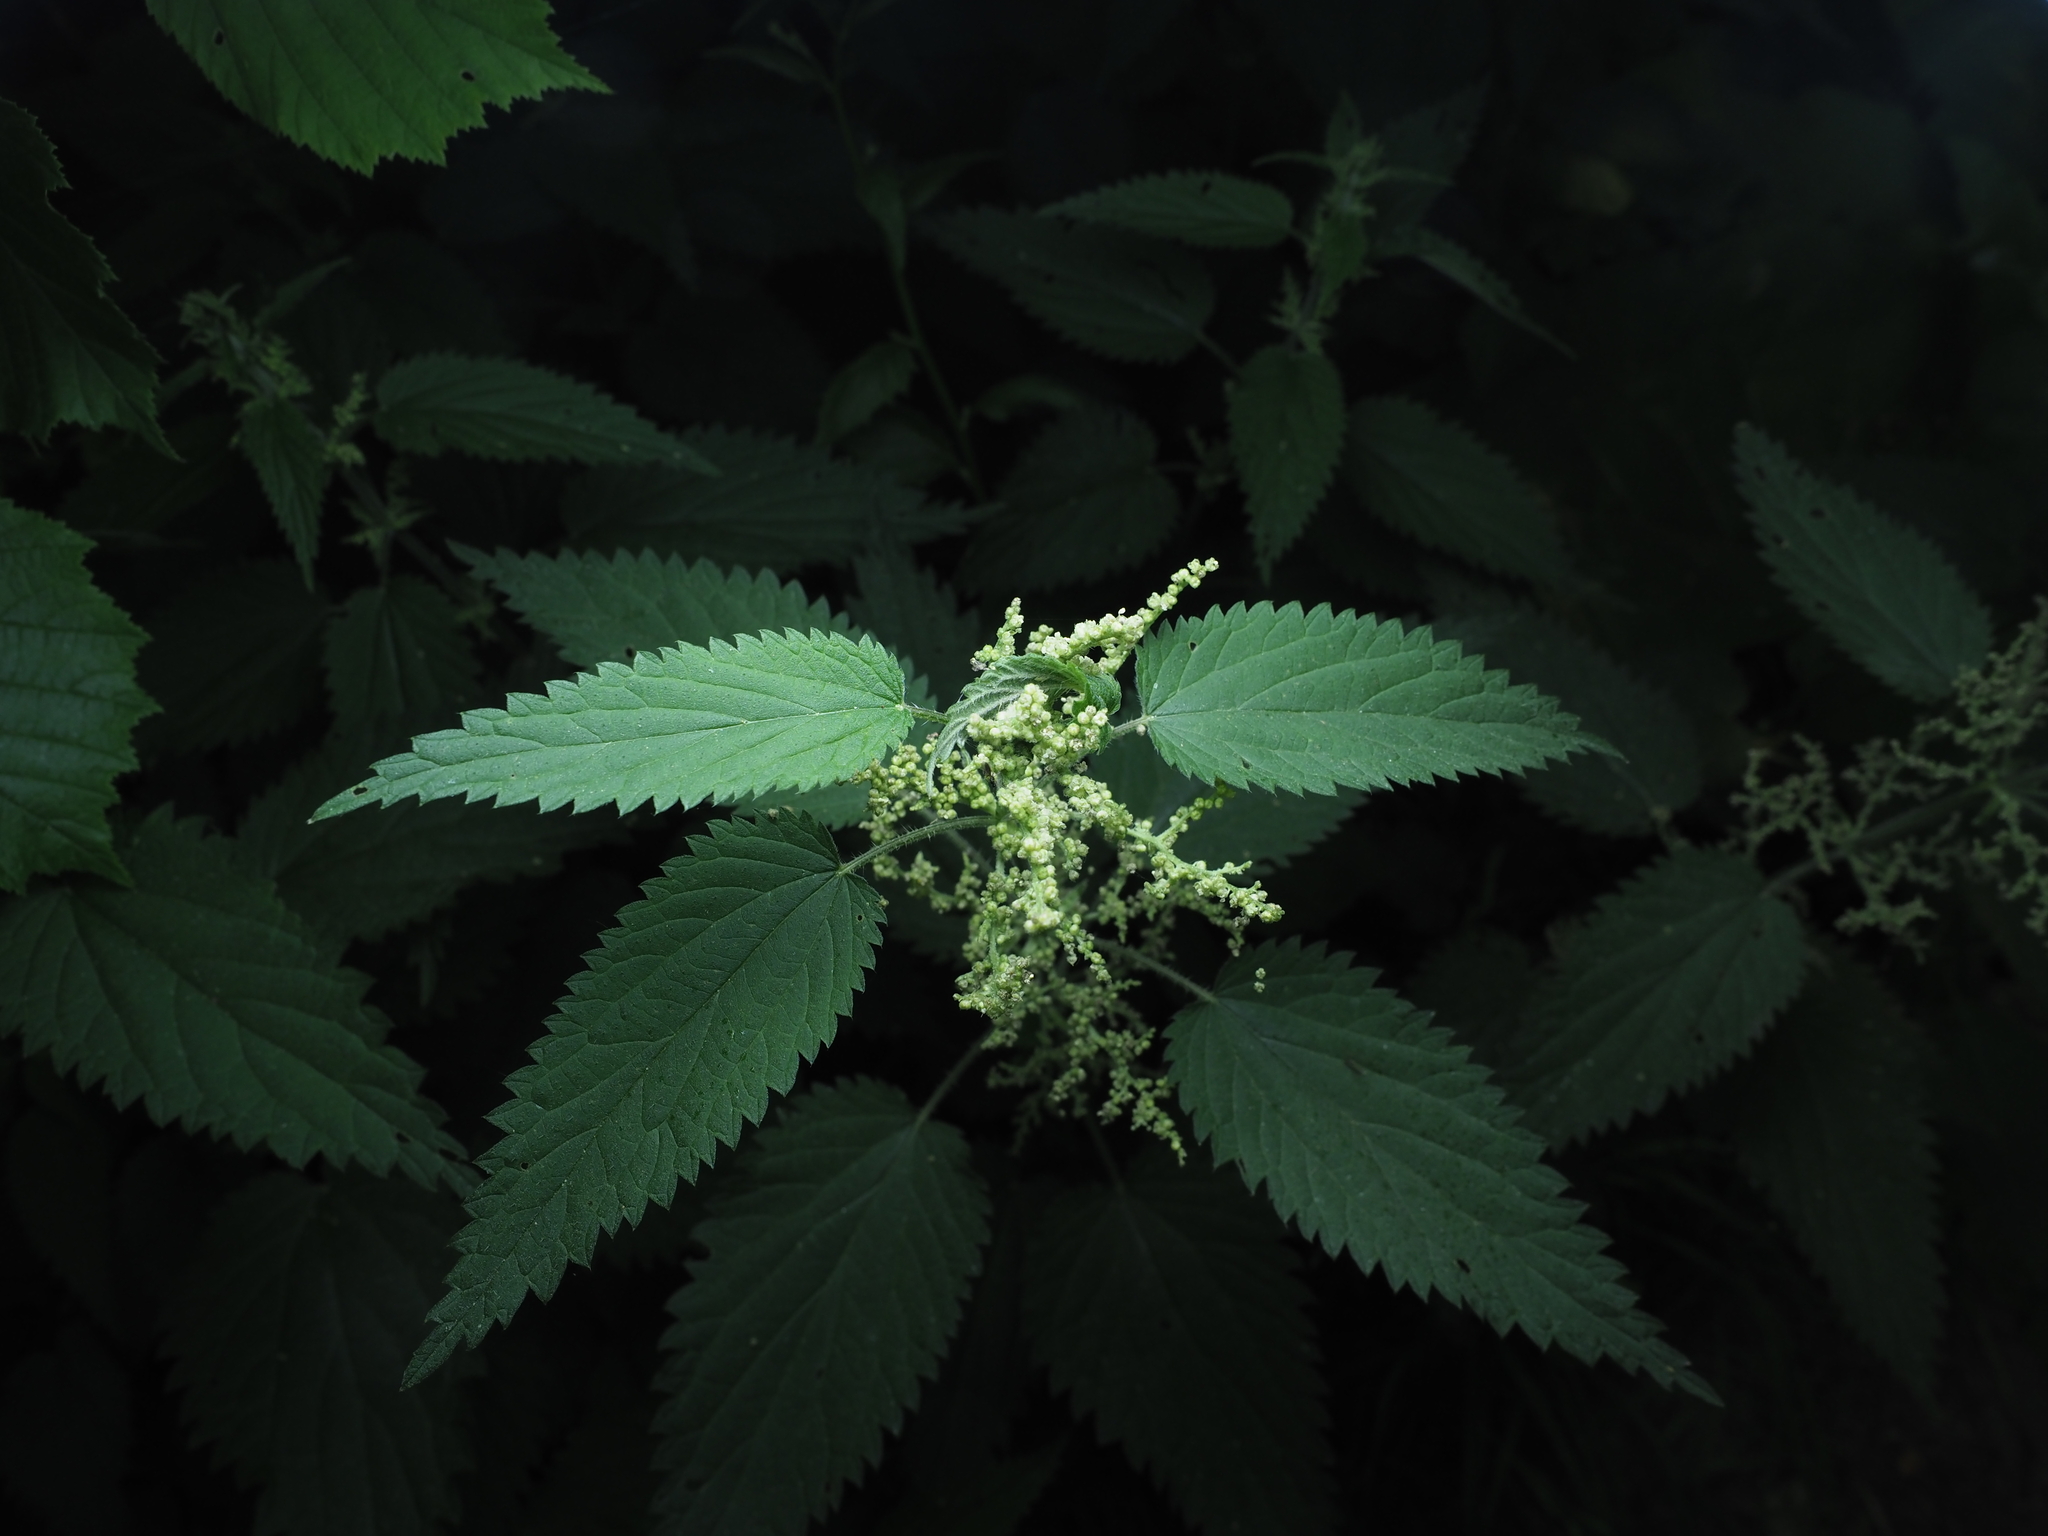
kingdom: Plantae
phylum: Tracheophyta
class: Magnoliopsida
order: Rosales
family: Urticaceae
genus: Urtica
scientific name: Urtica dioica
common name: Common nettle
